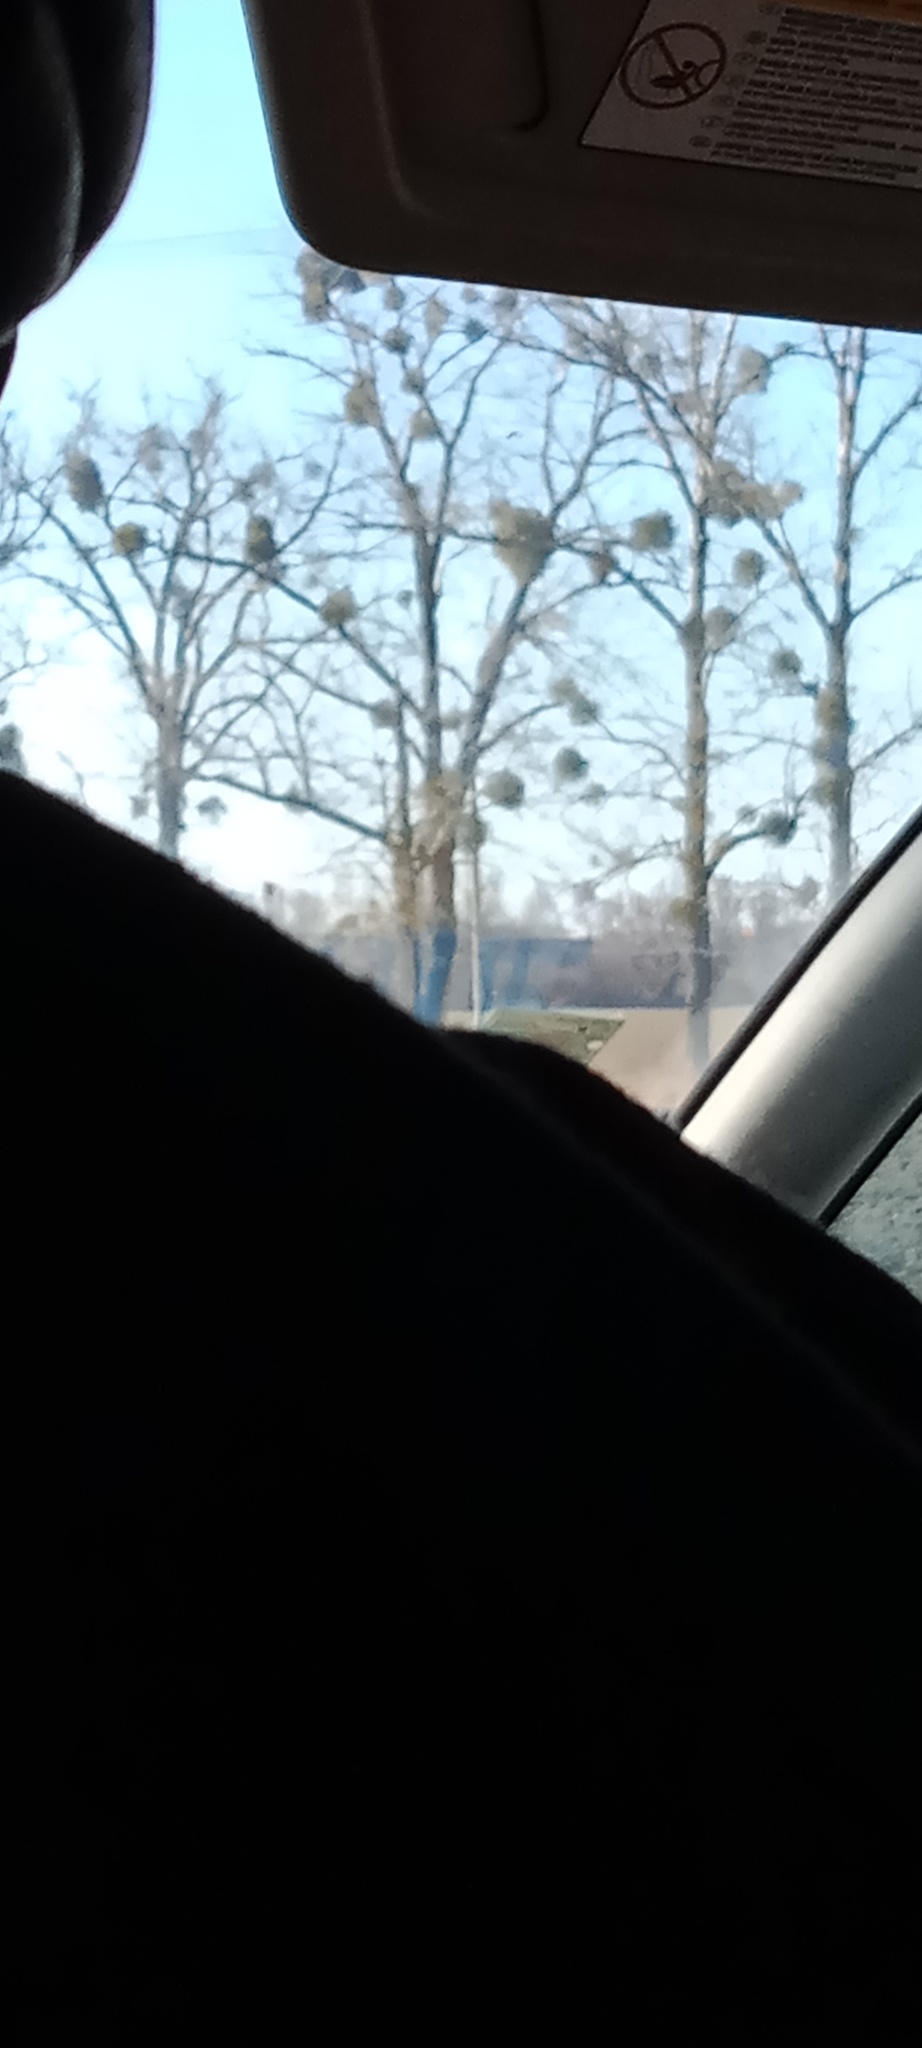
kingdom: Plantae
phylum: Tracheophyta
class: Magnoliopsida
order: Santalales
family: Viscaceae
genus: Viscum
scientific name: Viscum album
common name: Mistletoe
